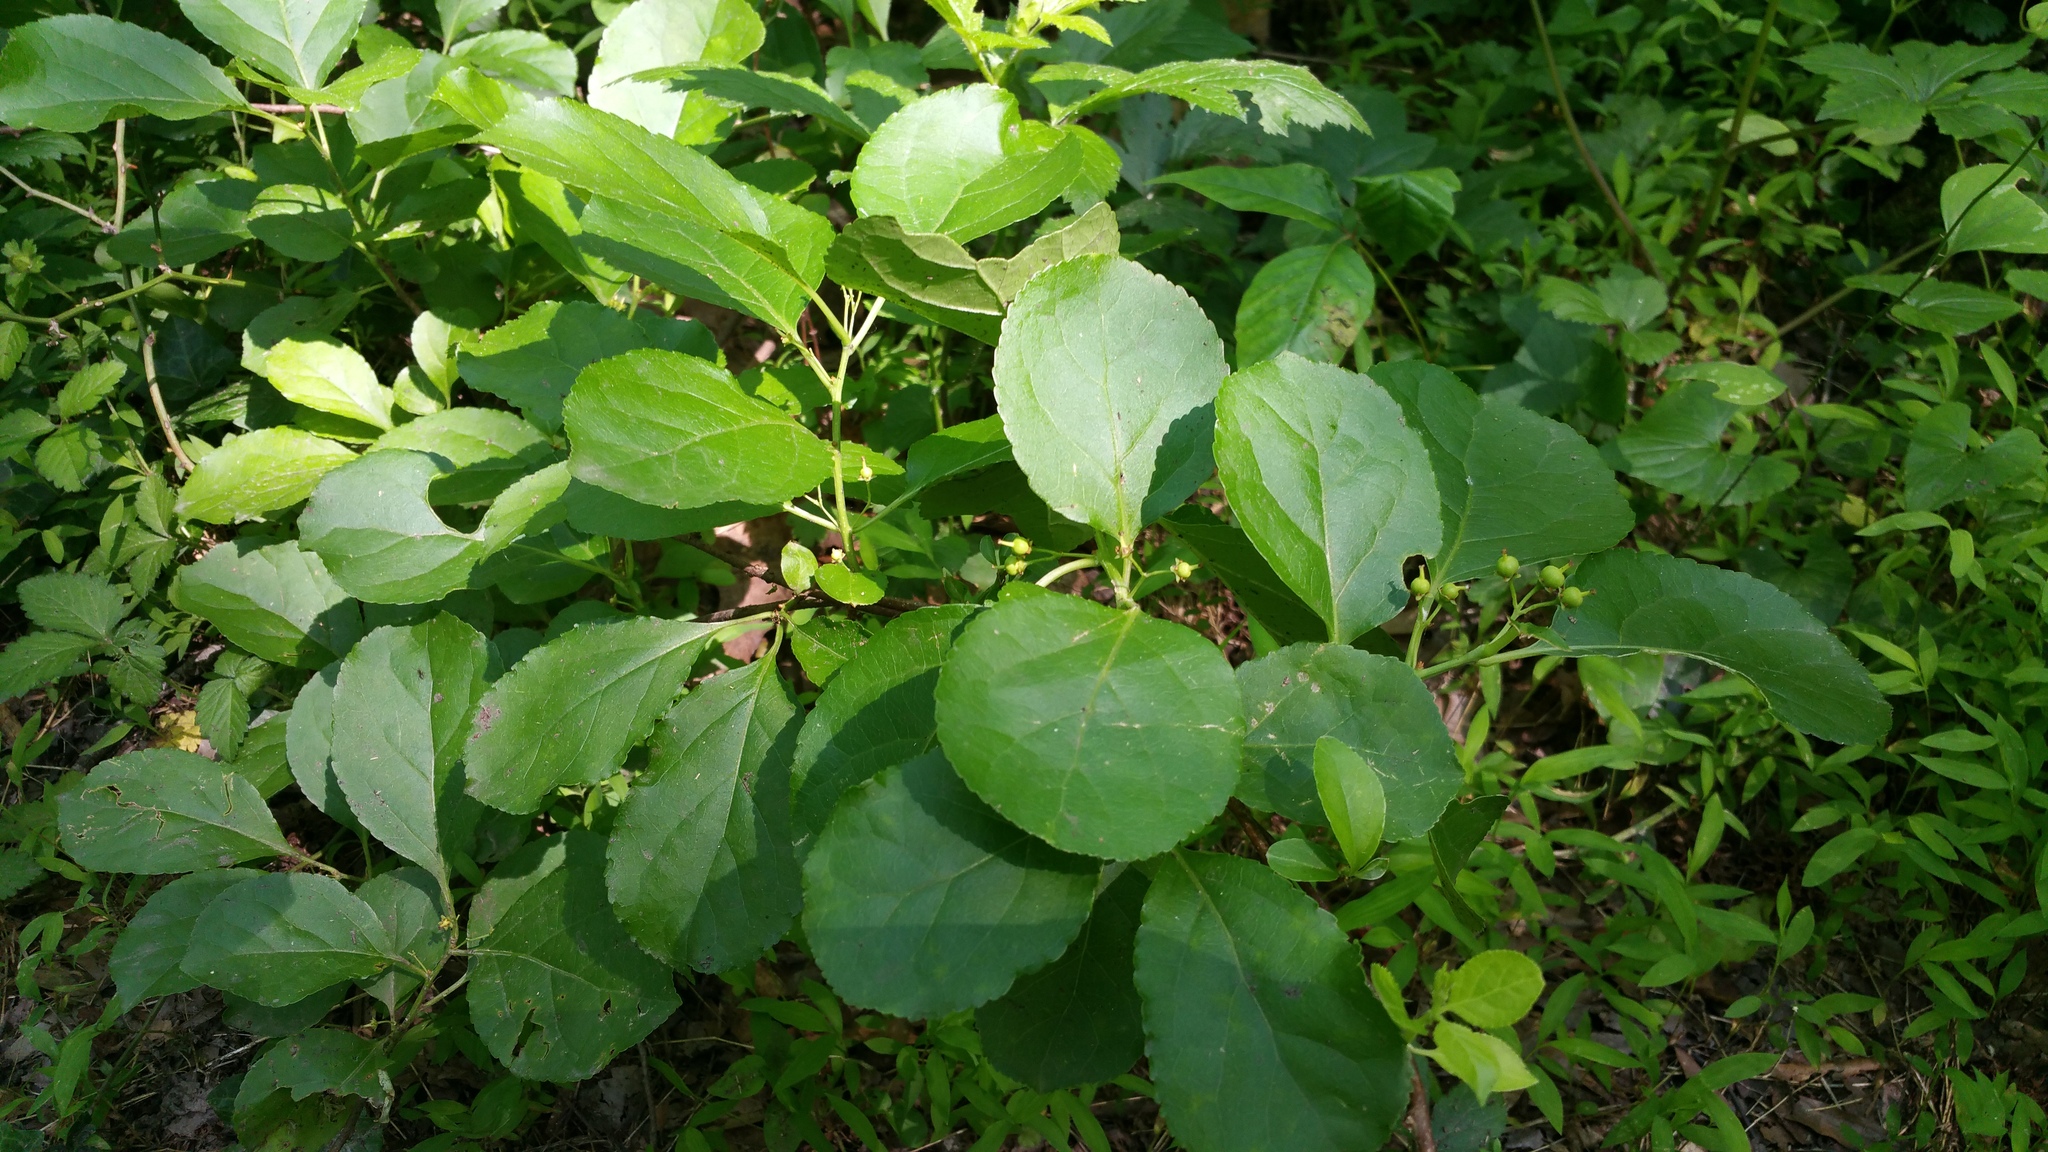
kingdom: Plantae
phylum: Tracheophyta
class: Magnoliopsida
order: Celastrales
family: Celastraceae
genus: Celastrus
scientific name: Celastrus orbiculatus
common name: Oriental bittersweet
